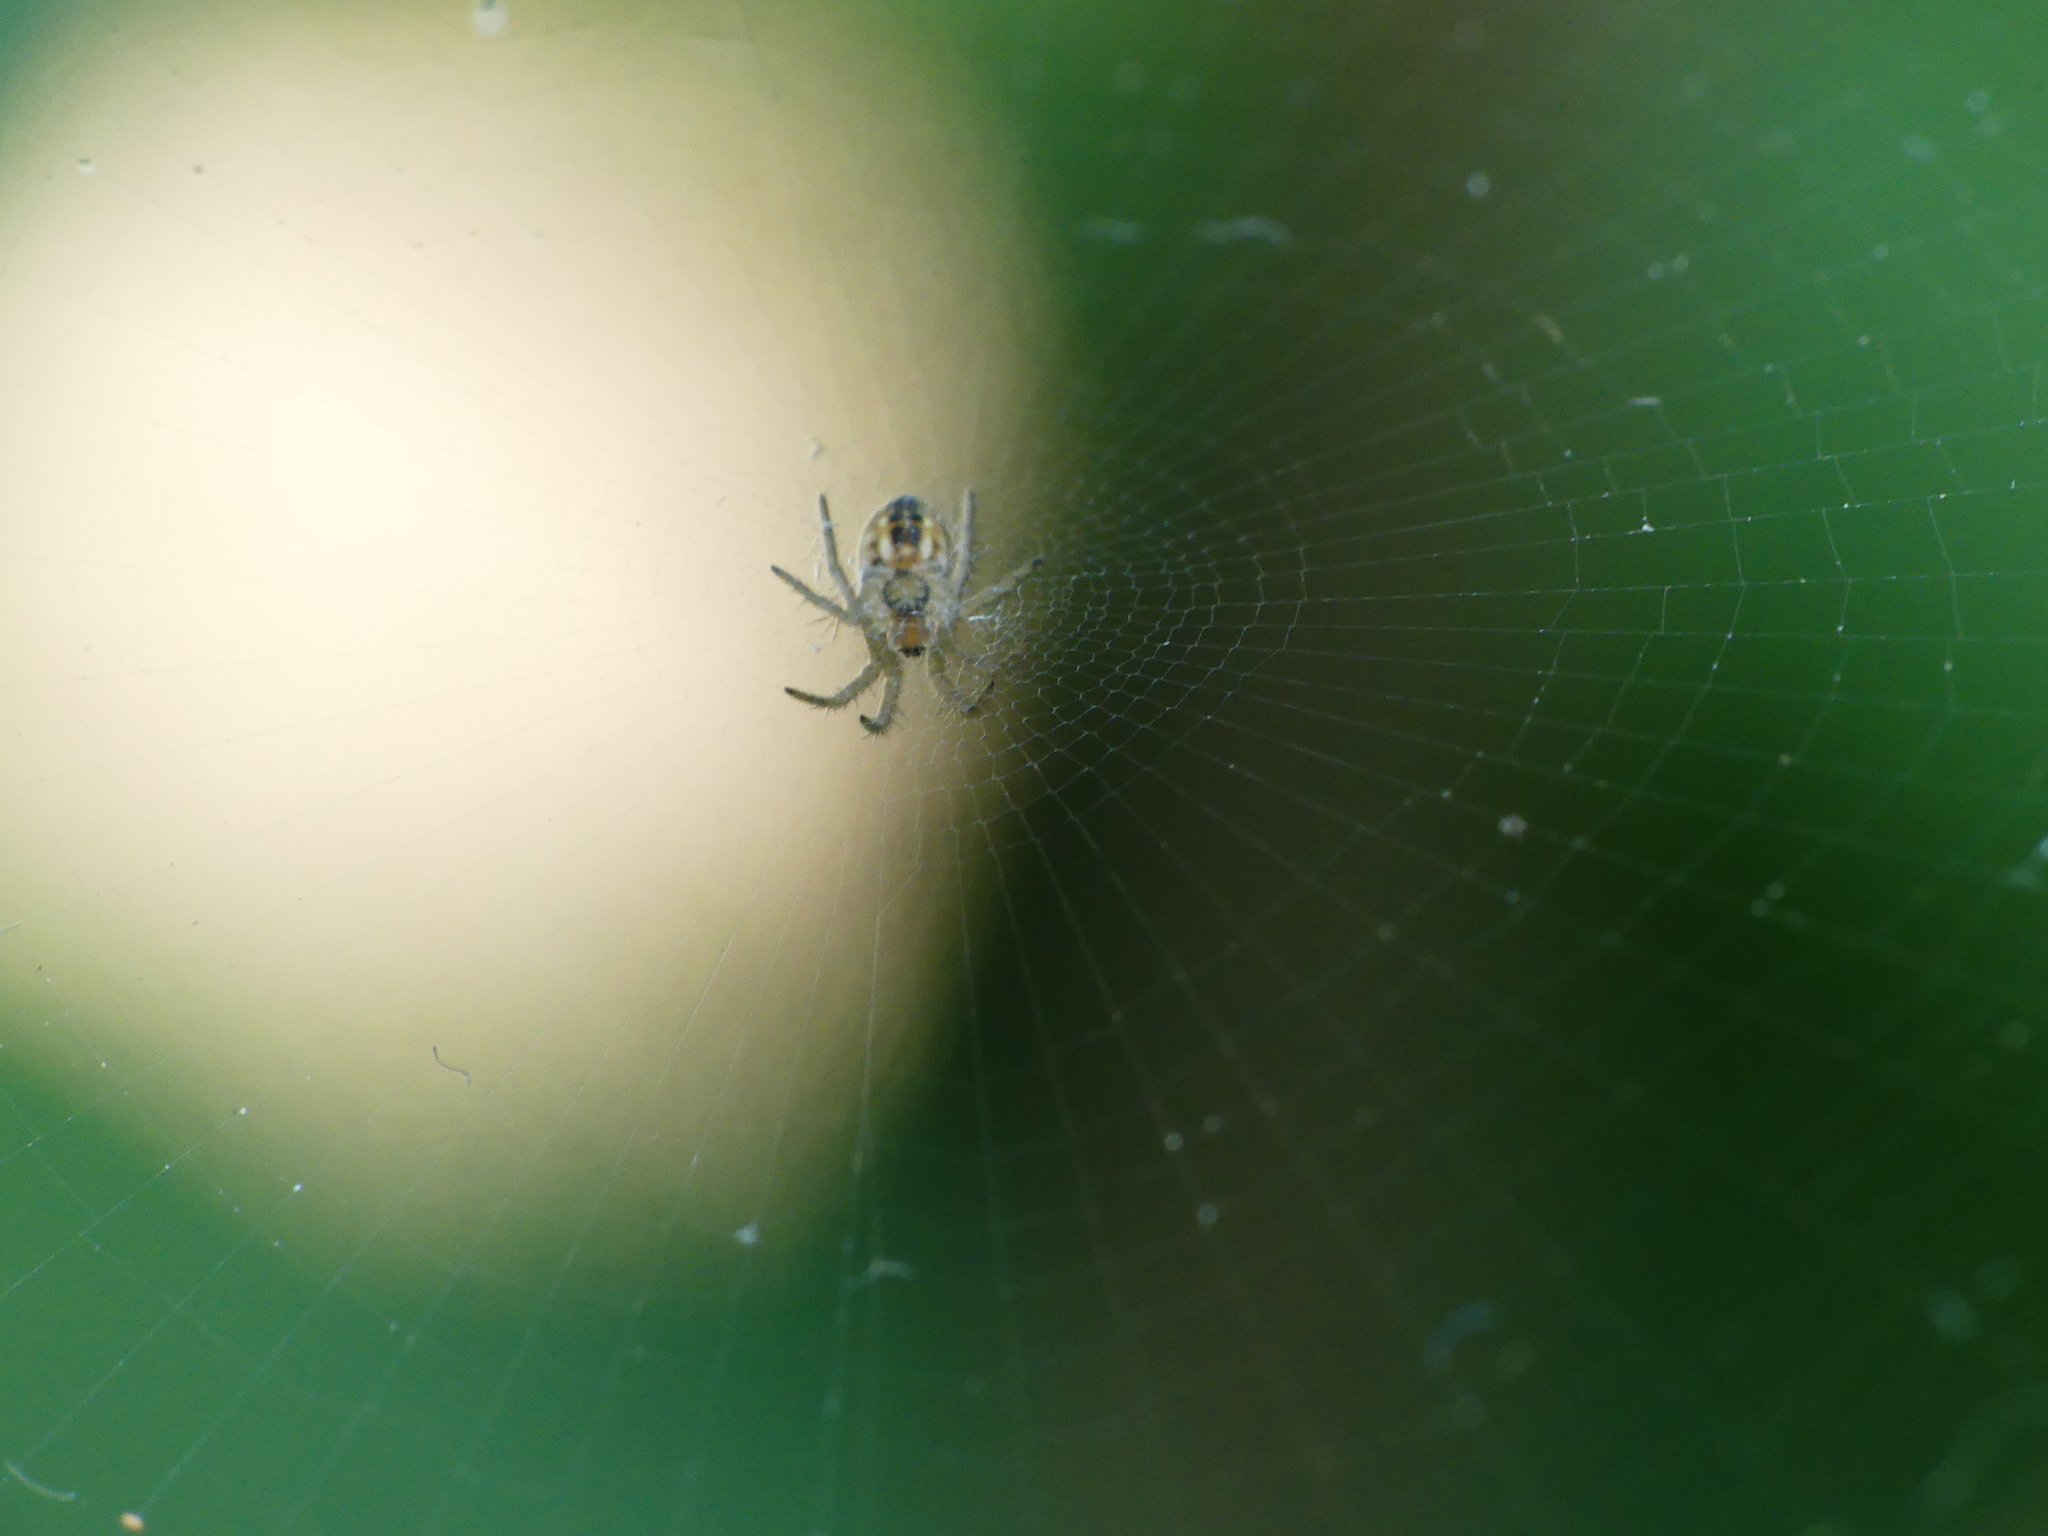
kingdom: Animalia
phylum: Arthropoda
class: Arachnida
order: Araneae
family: Araneidae
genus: Mangora
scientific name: Mangora acalypha
